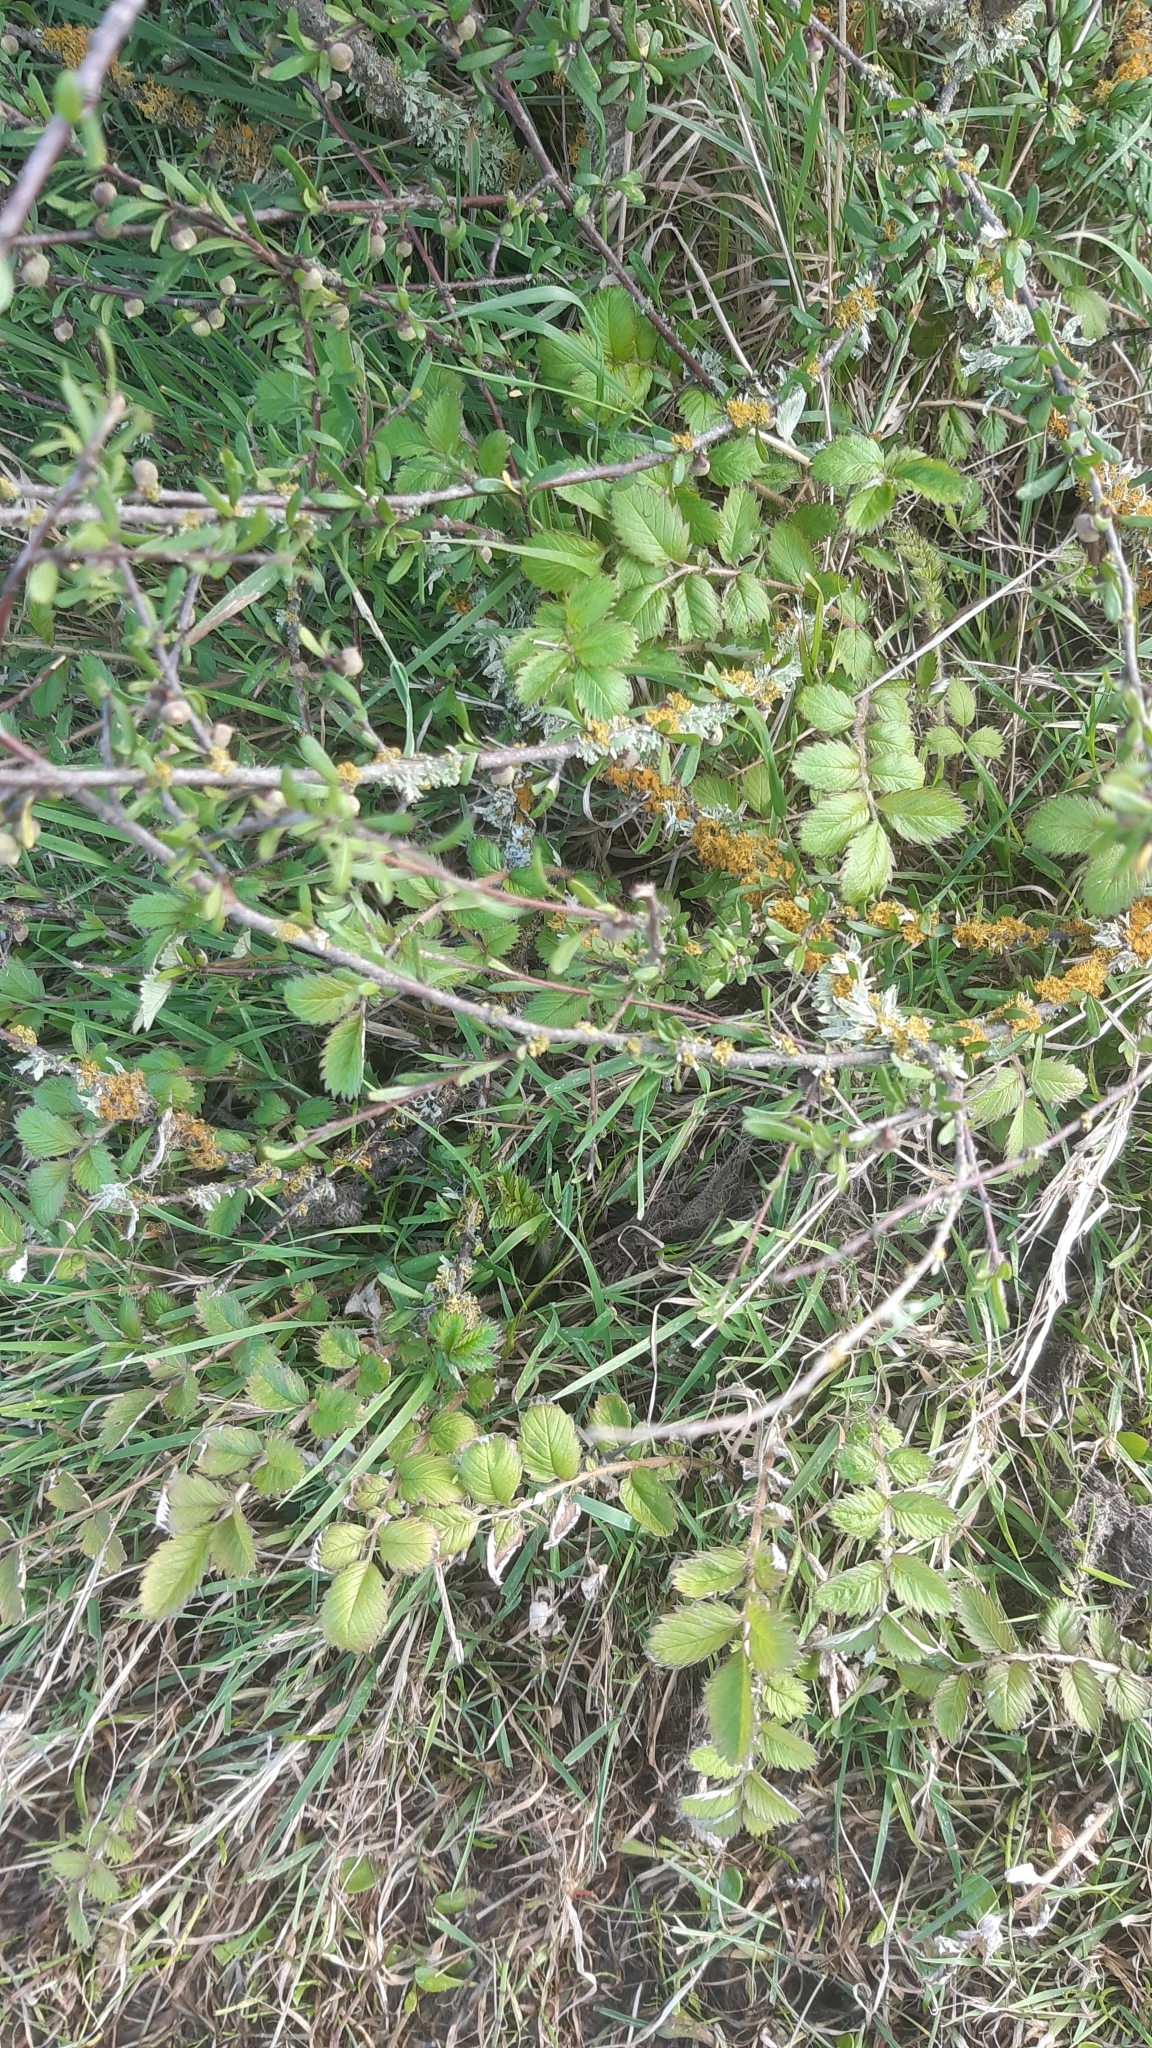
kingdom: Plantae
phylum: Tracheophyta
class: Magnoliopsida
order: Rosales
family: Rosaceae
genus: Argentina
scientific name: Argentina anserinoides
